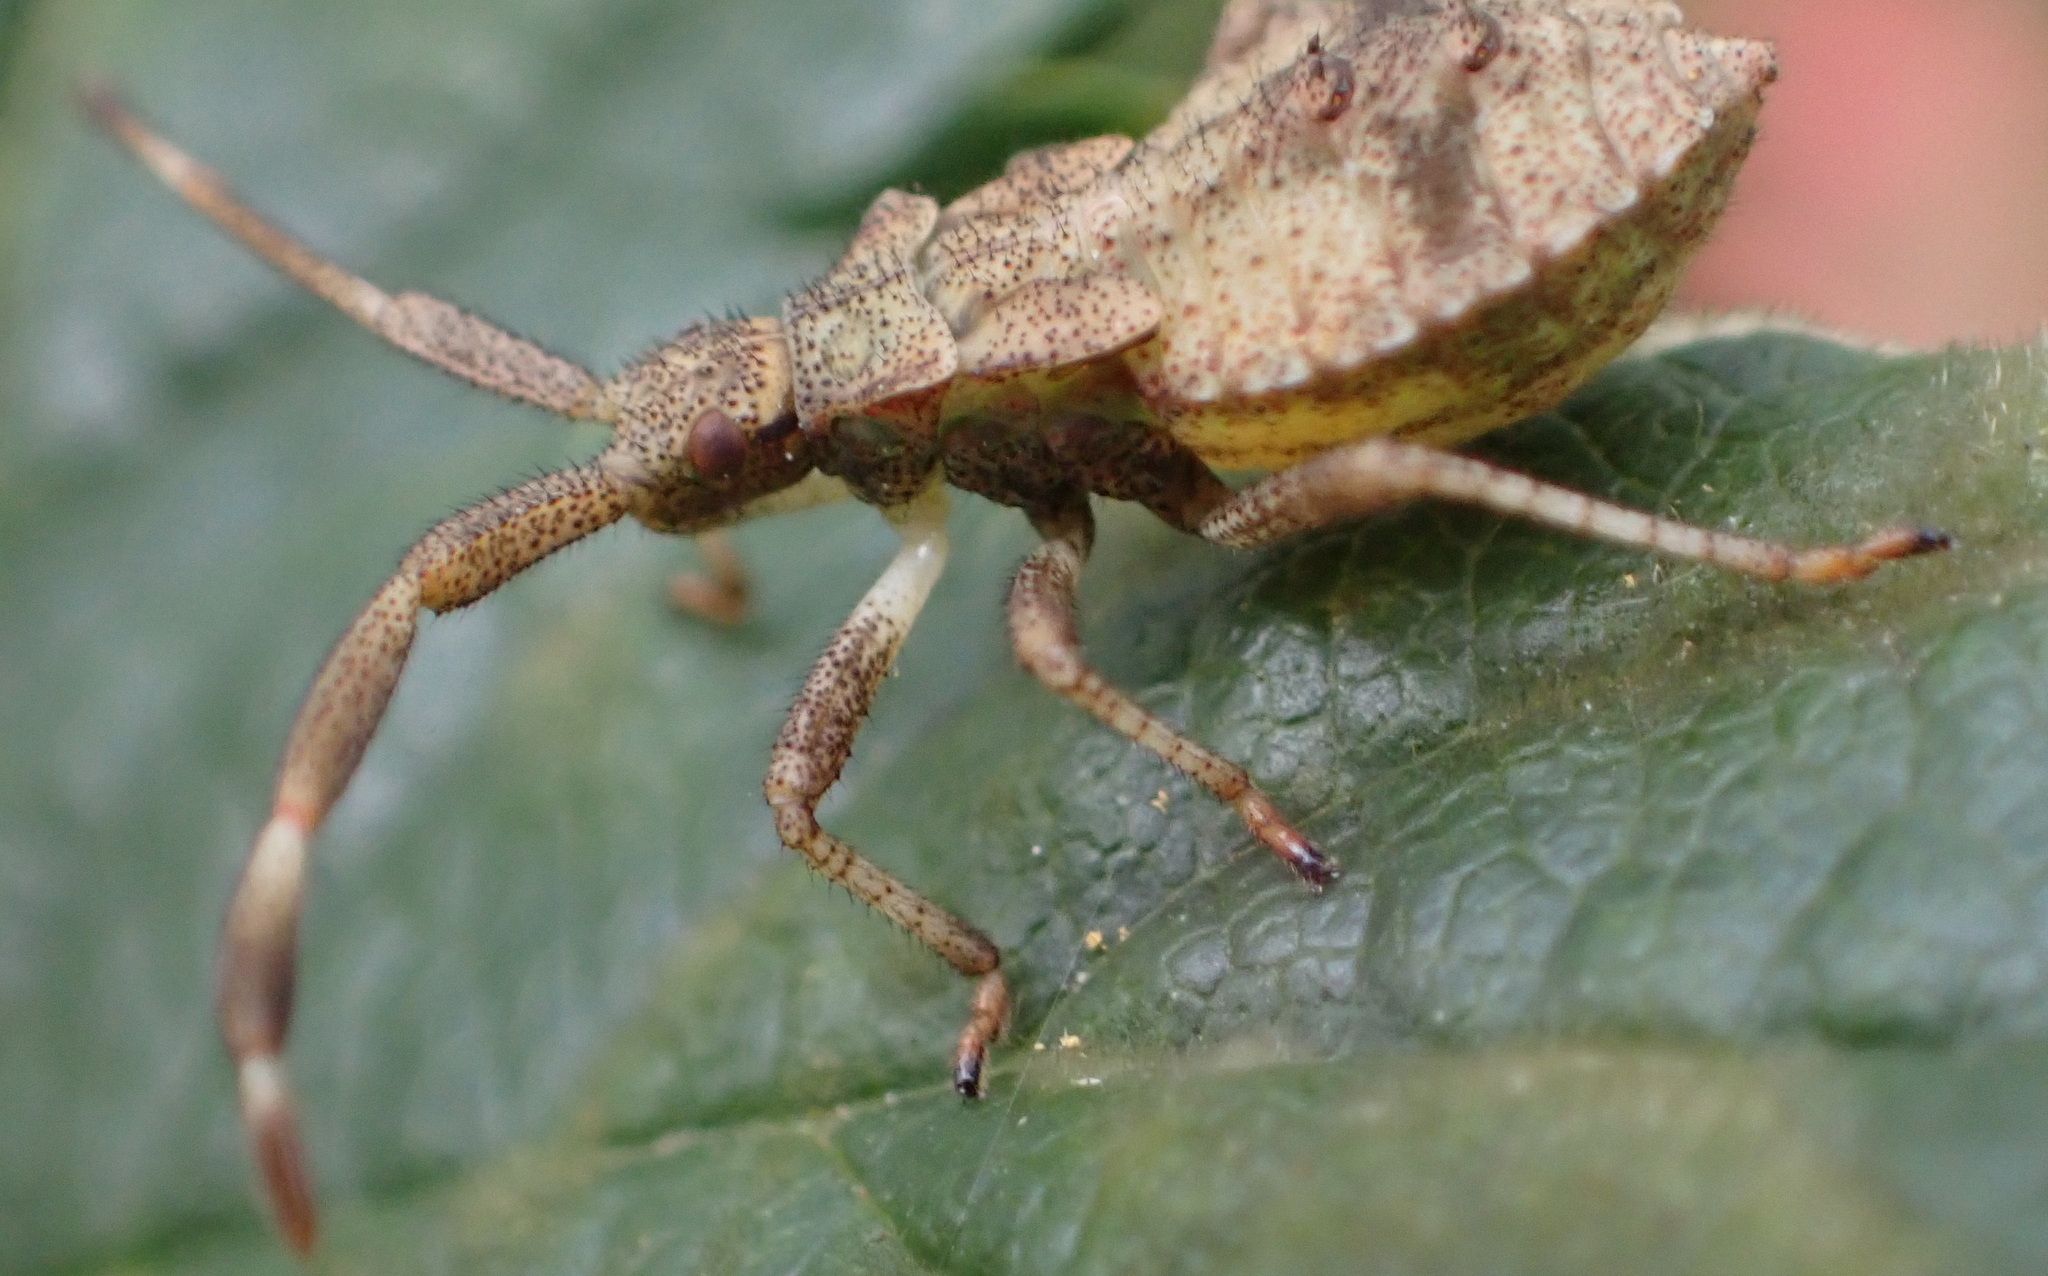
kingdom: Animalia
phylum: Arthropoda
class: Insecta
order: Hemiptera
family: Coreidae
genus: Coreus
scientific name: Coreus marginatus
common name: Dock bug
